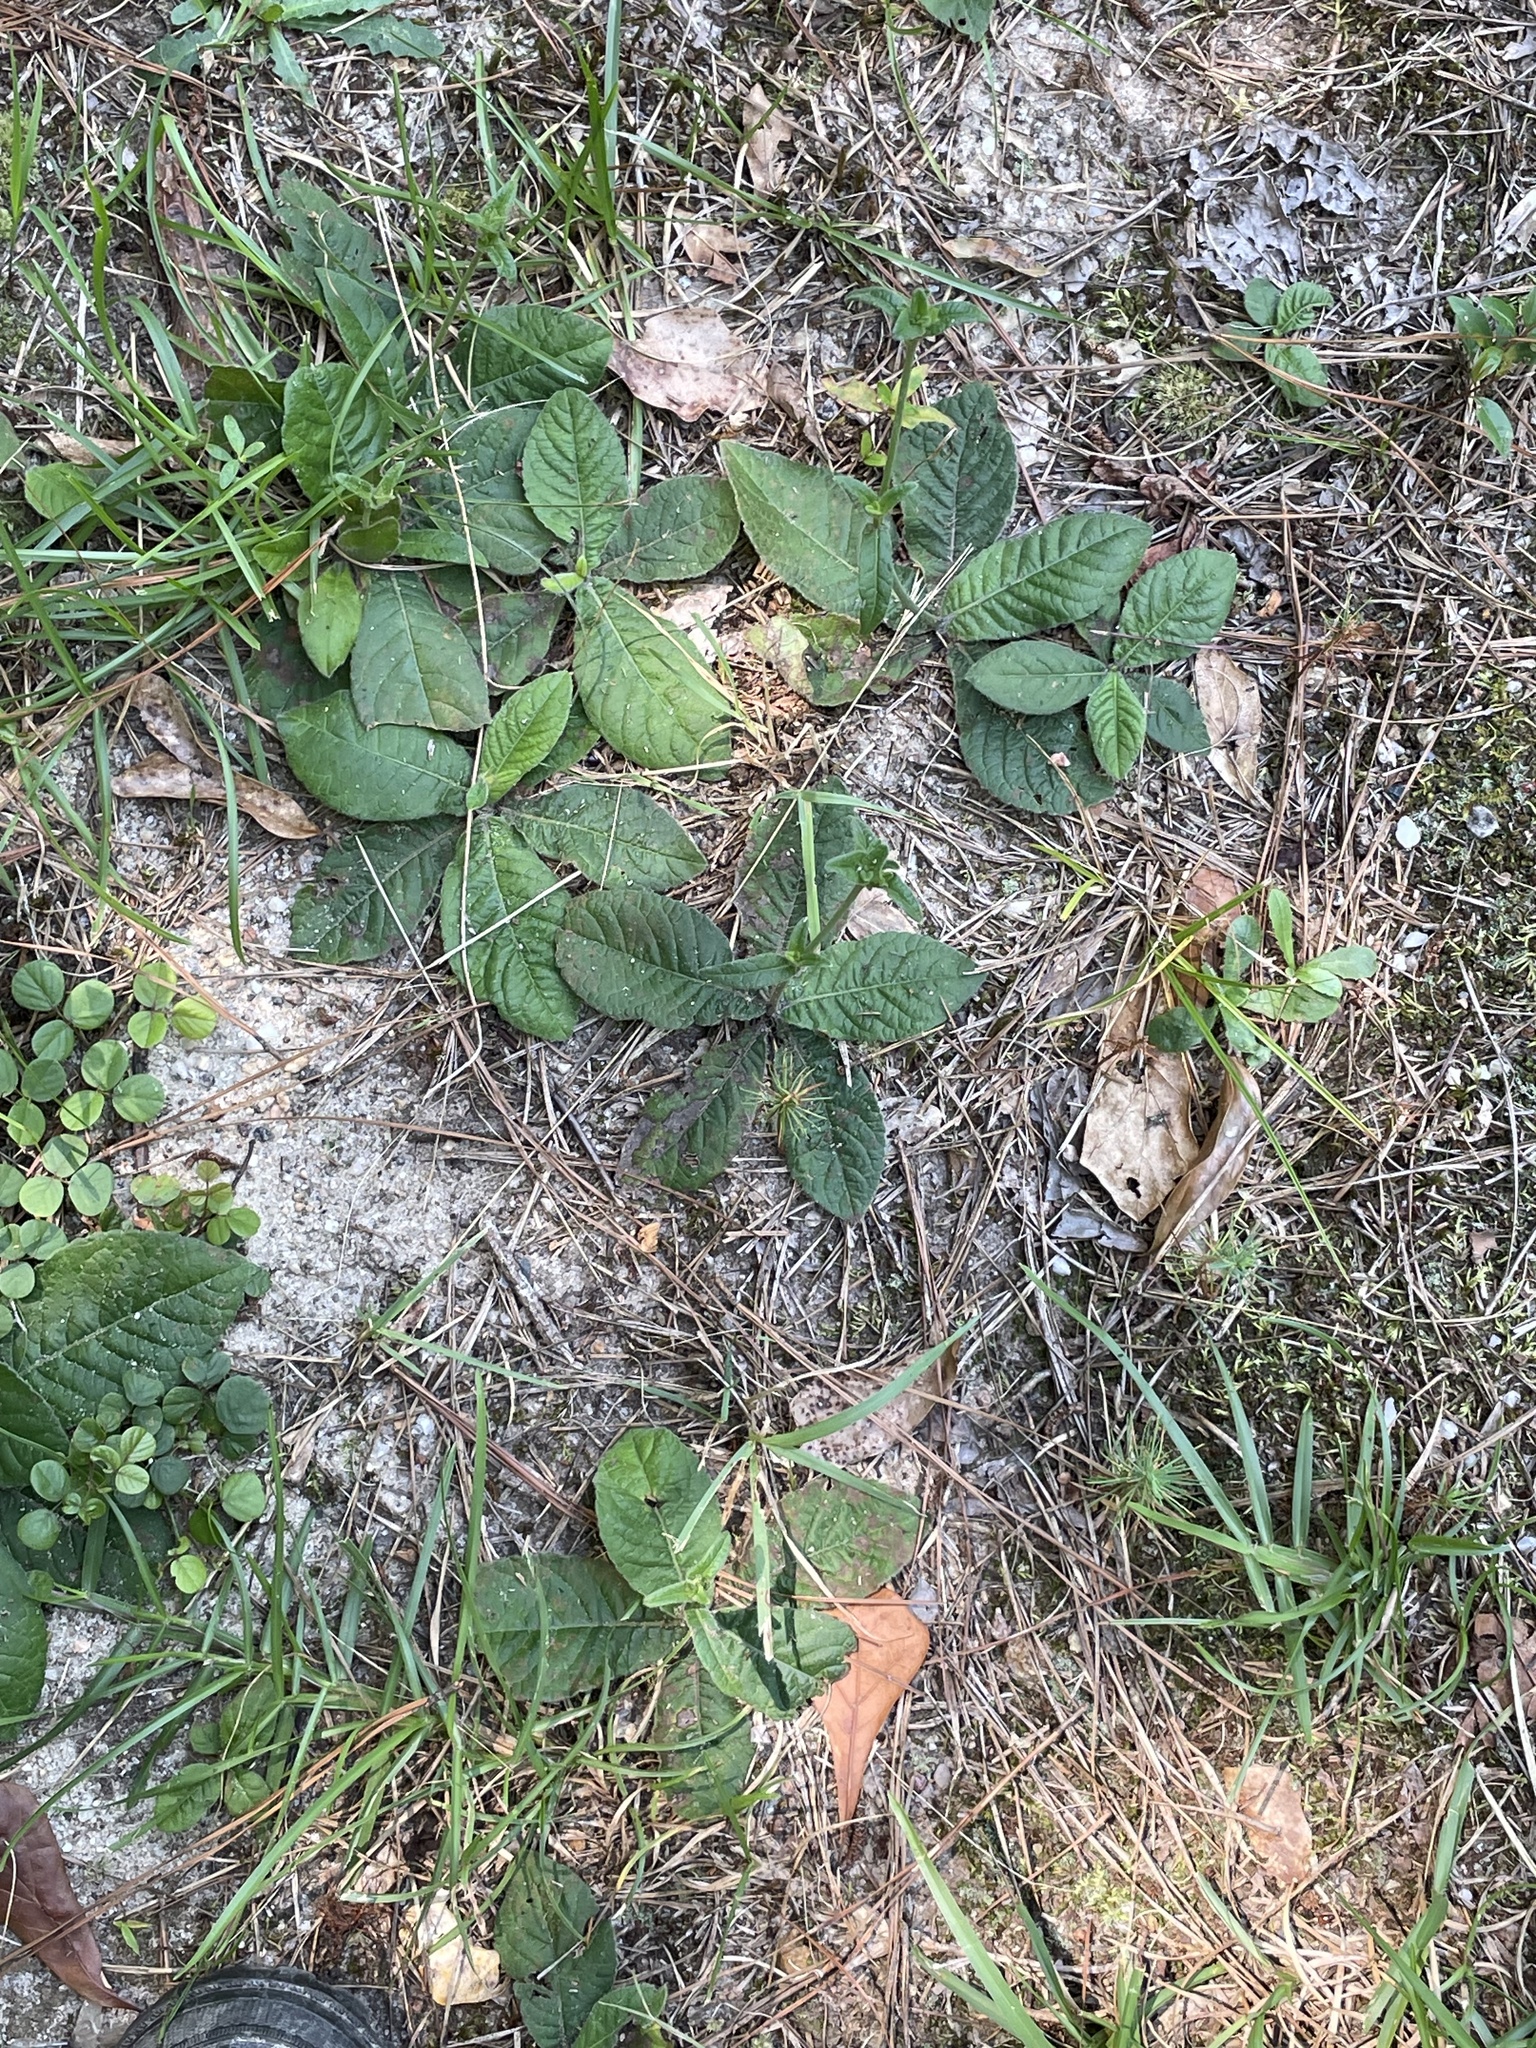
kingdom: Plantae
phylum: Tracheophyta
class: Magnoliopsida
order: Asterales
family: Asteraceae
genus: Elephantopus
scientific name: Elephantopus tomentosus
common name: Tobacco-weed
